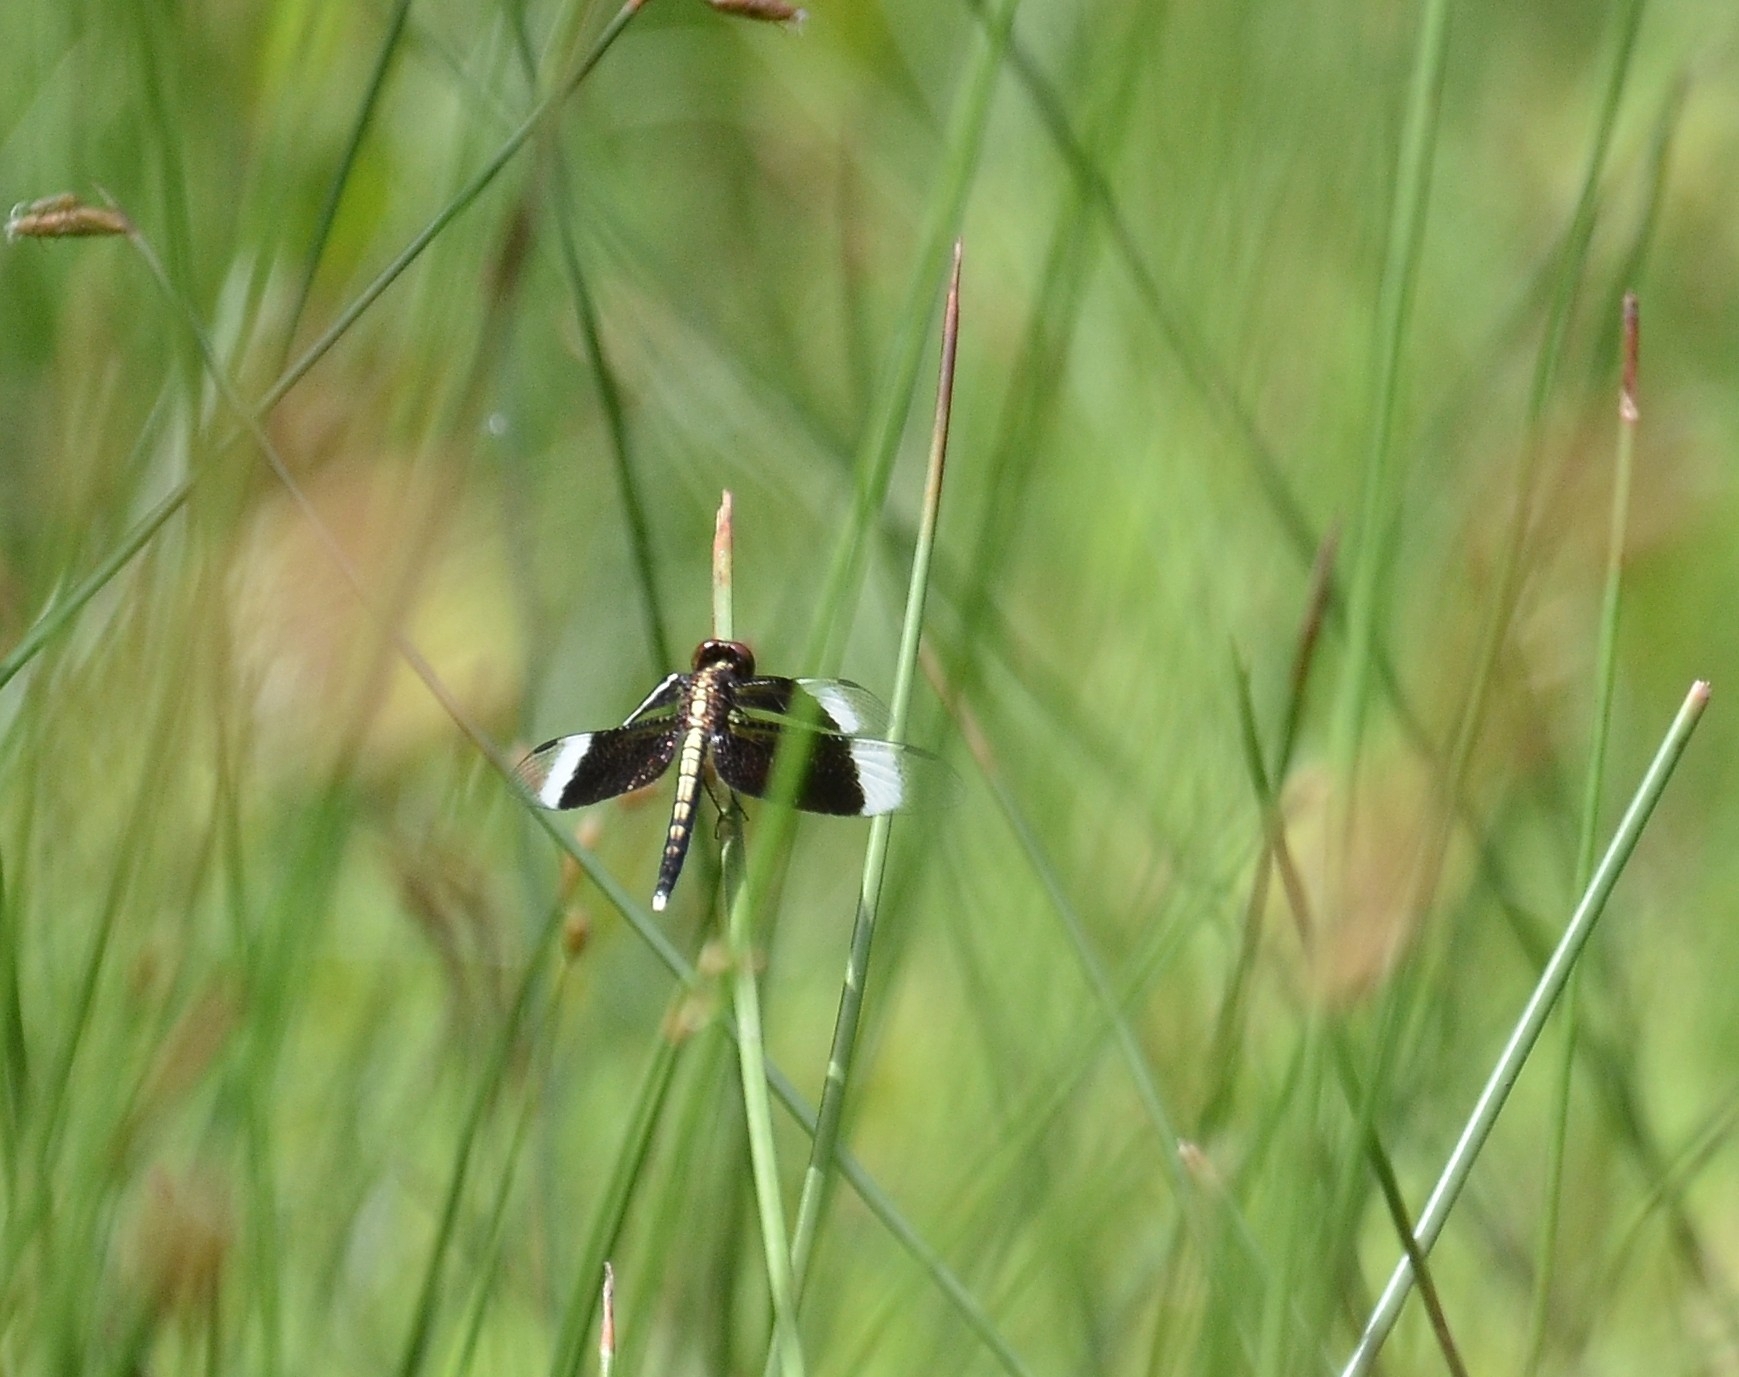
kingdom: Animalia
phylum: Arthropoda
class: Insecta
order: Odonata
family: Libellulidae
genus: Neurothemis
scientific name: Neurothemis tullia
